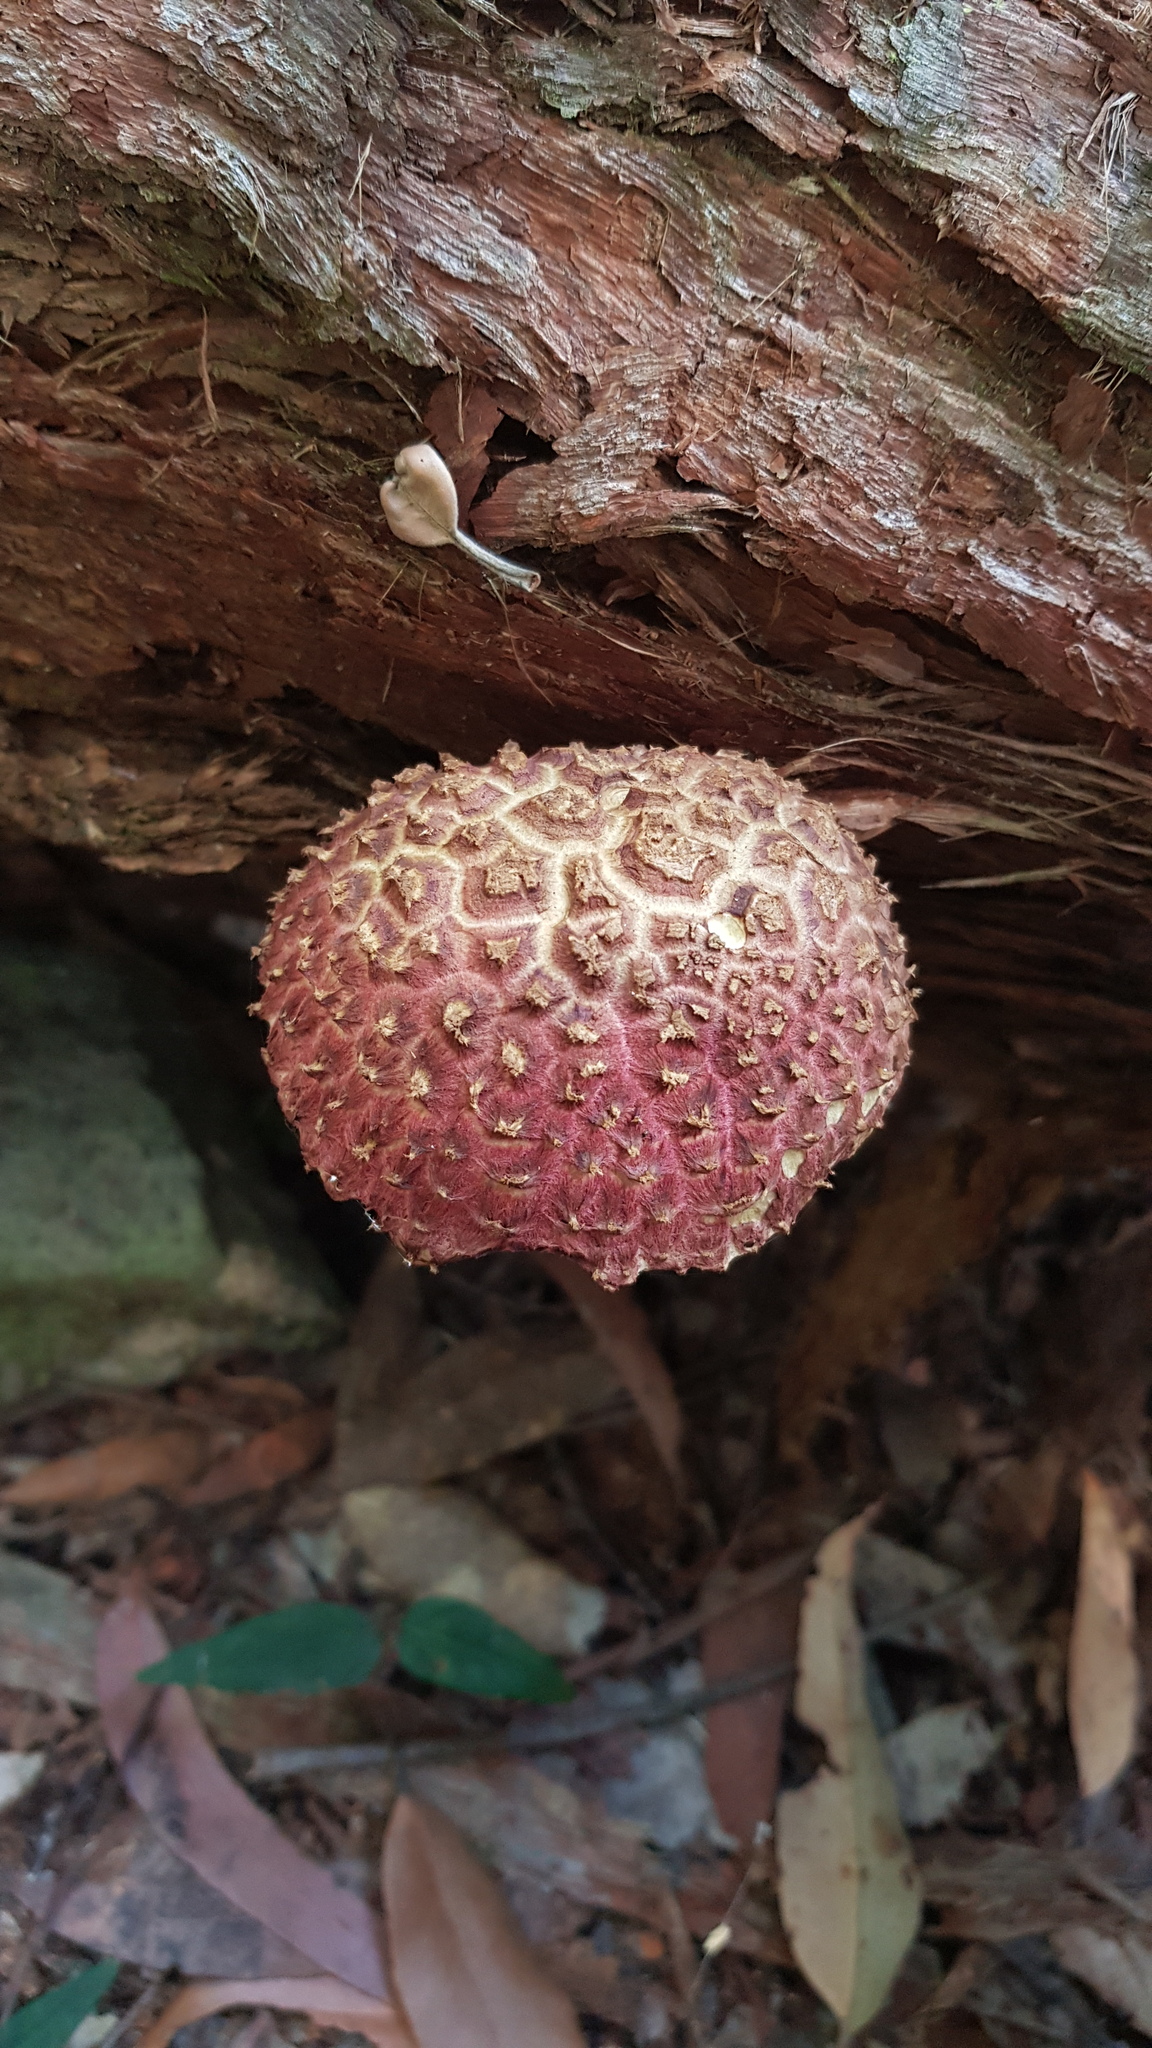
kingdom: Fungi
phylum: Basidiomycota
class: Agaricomycetes
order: Boletales
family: Boletaceae
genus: Boletellus
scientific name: Boletellus deceptivus
